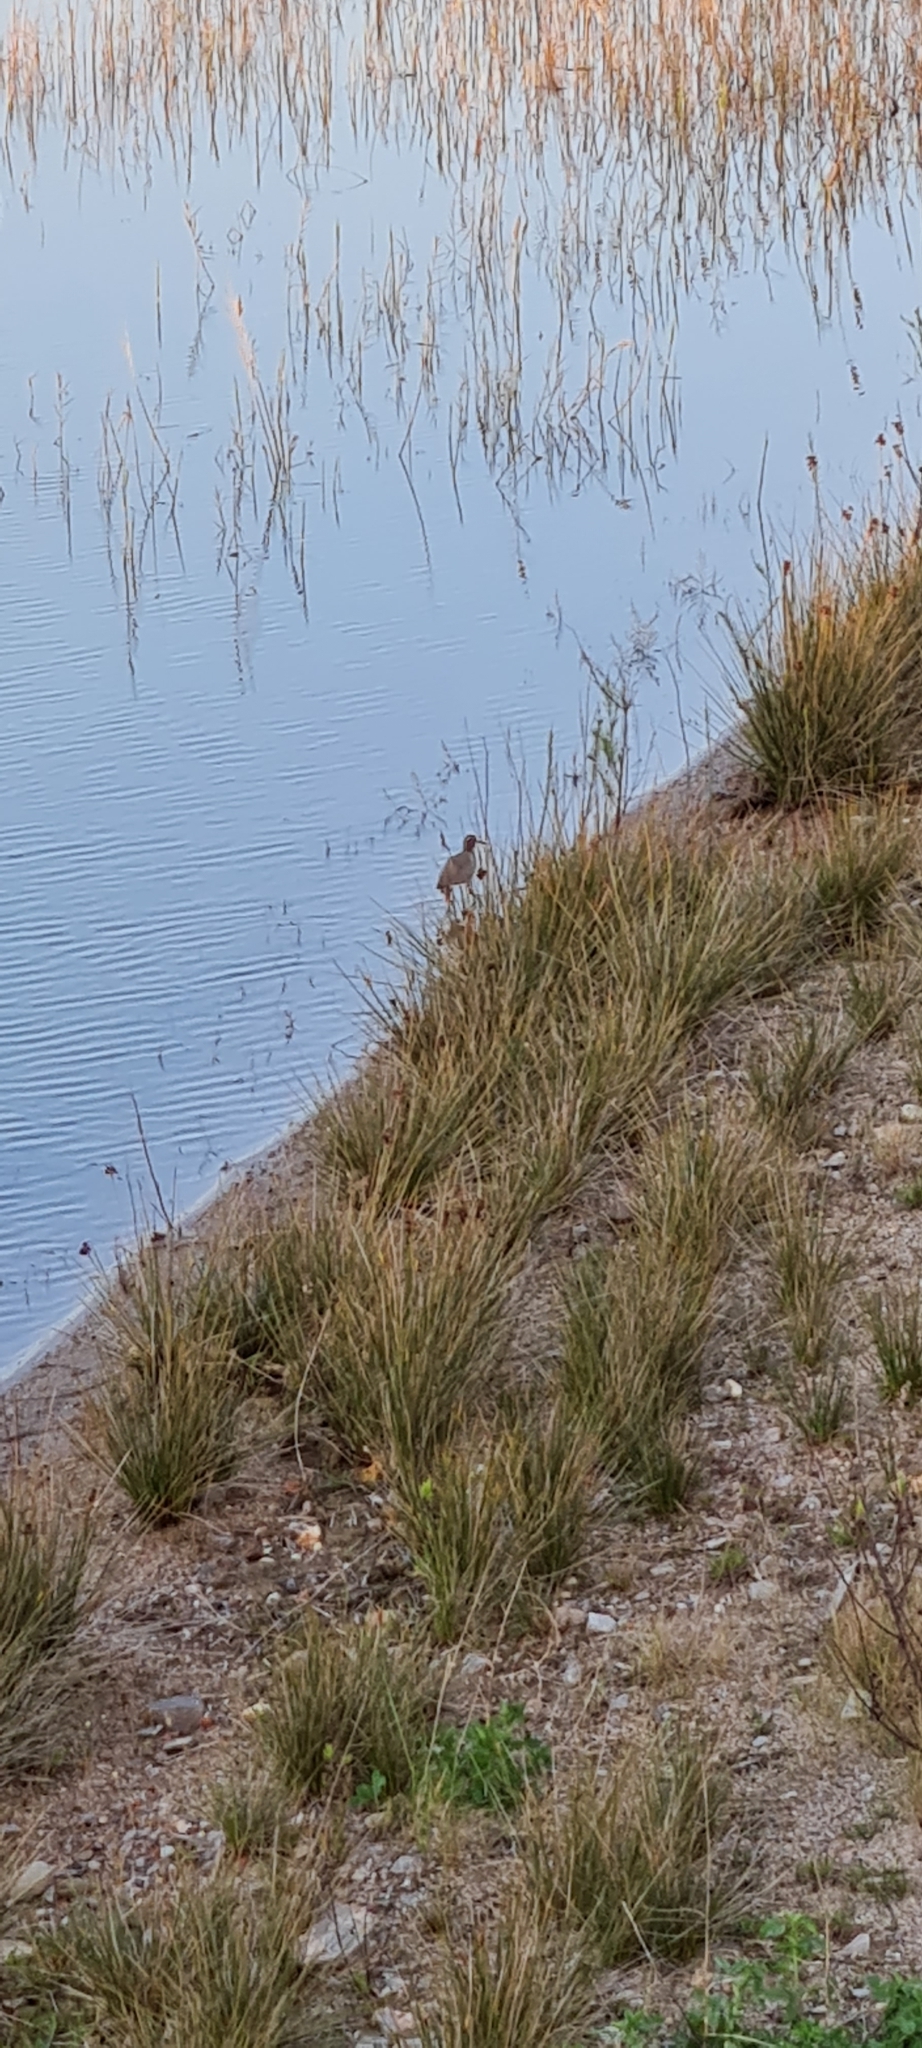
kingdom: Animalia
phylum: Chordata
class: Aves
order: Charadriiformes
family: Scolopacidae
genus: Tringa
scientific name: Tringa totanus
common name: Common redshank
